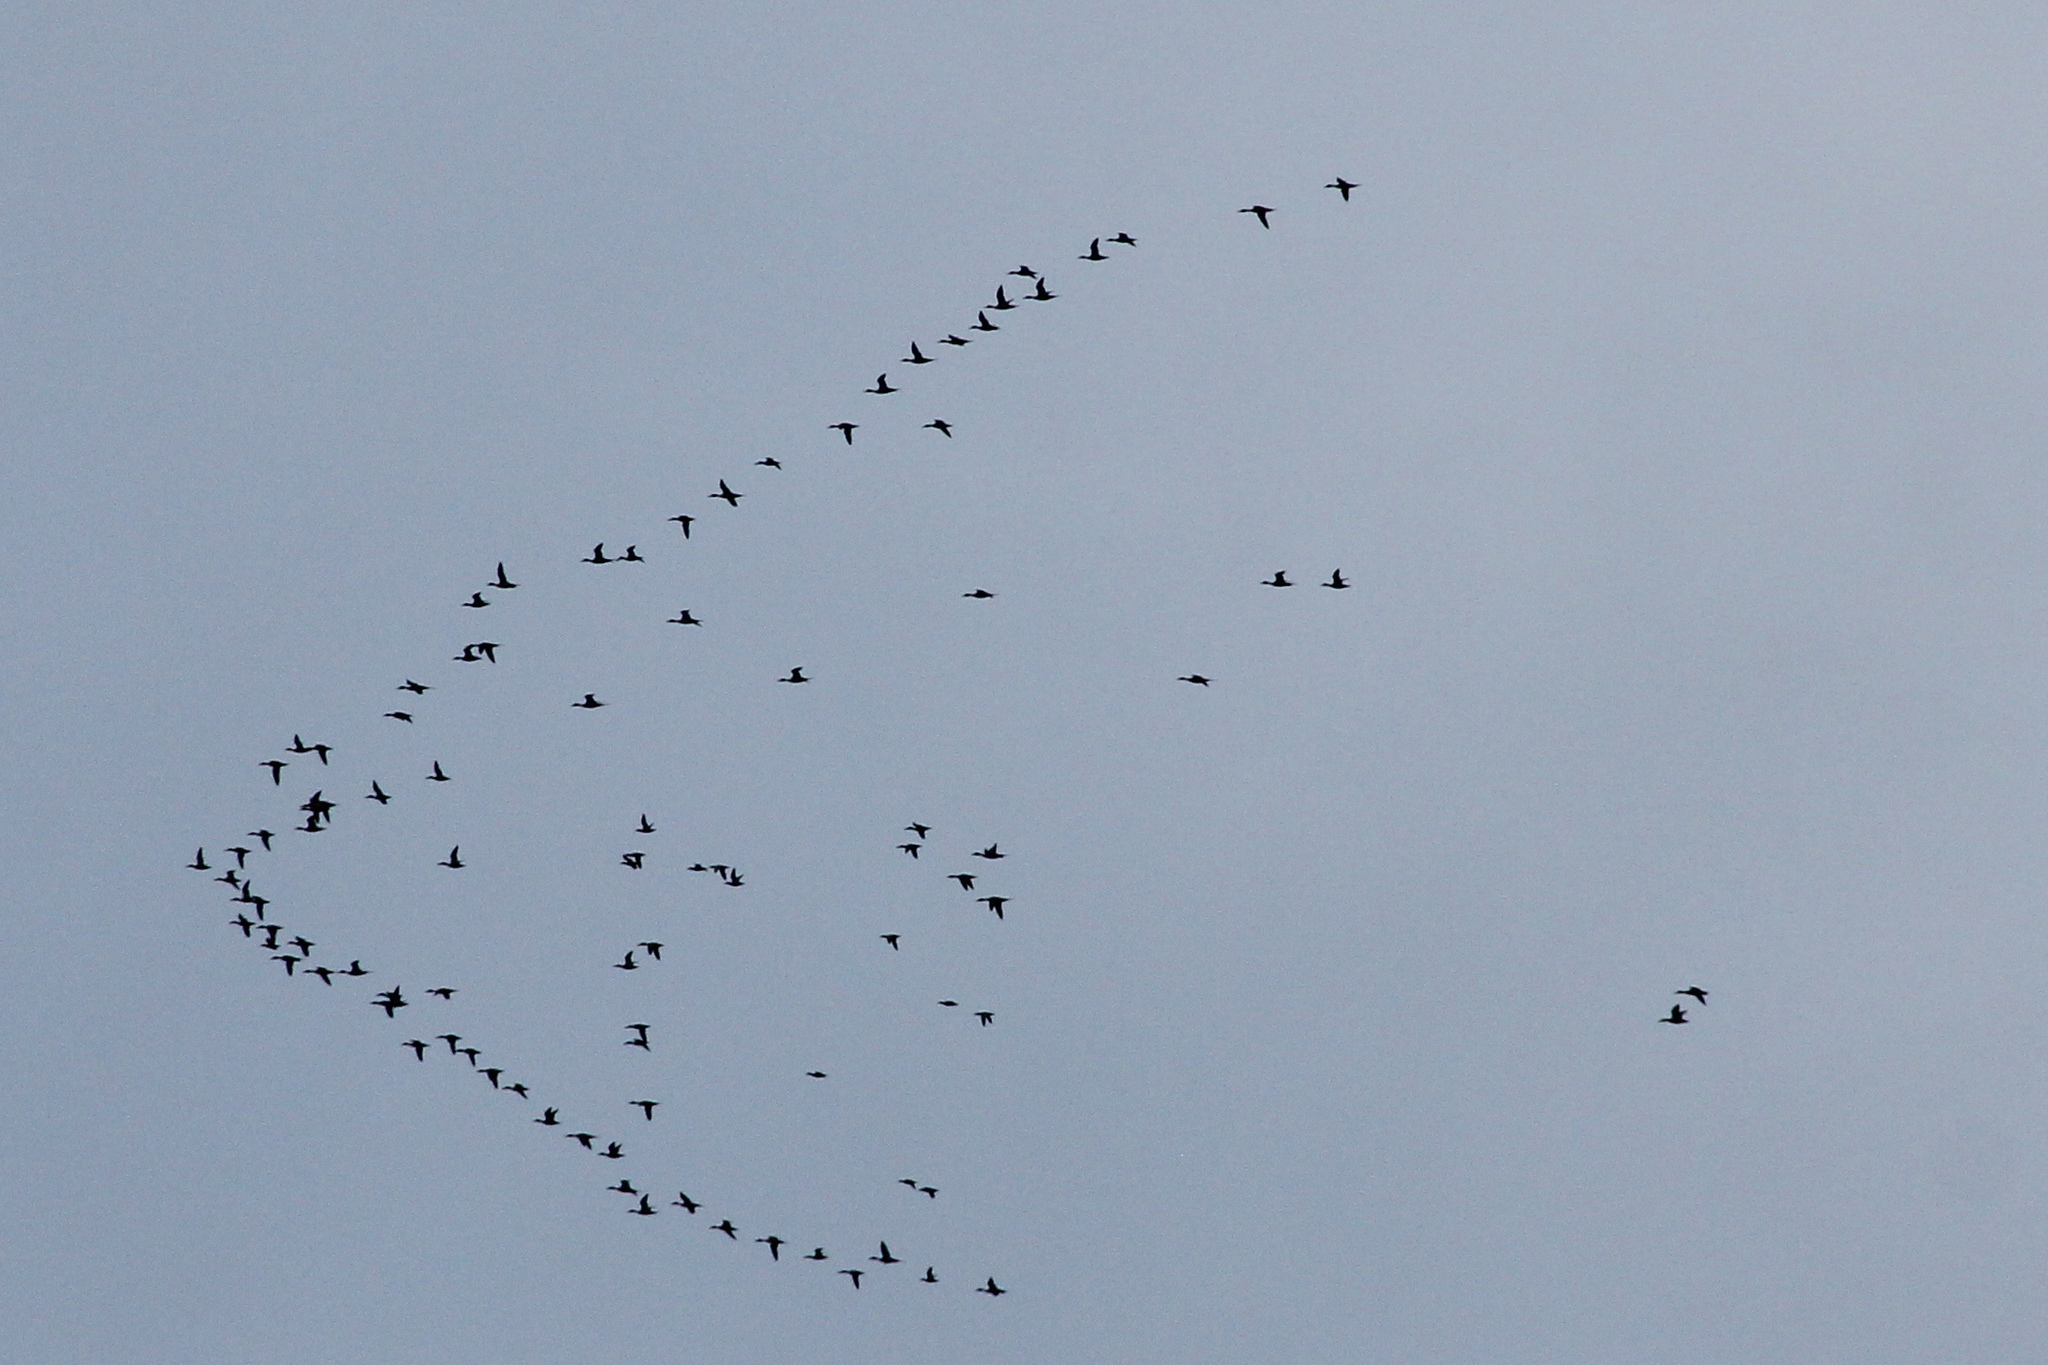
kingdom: Animalia
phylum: Chordata
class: Aves
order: Anseriformes
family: Anatidae
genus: Spatula
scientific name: Spatula clypeata
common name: Northern shoveler
